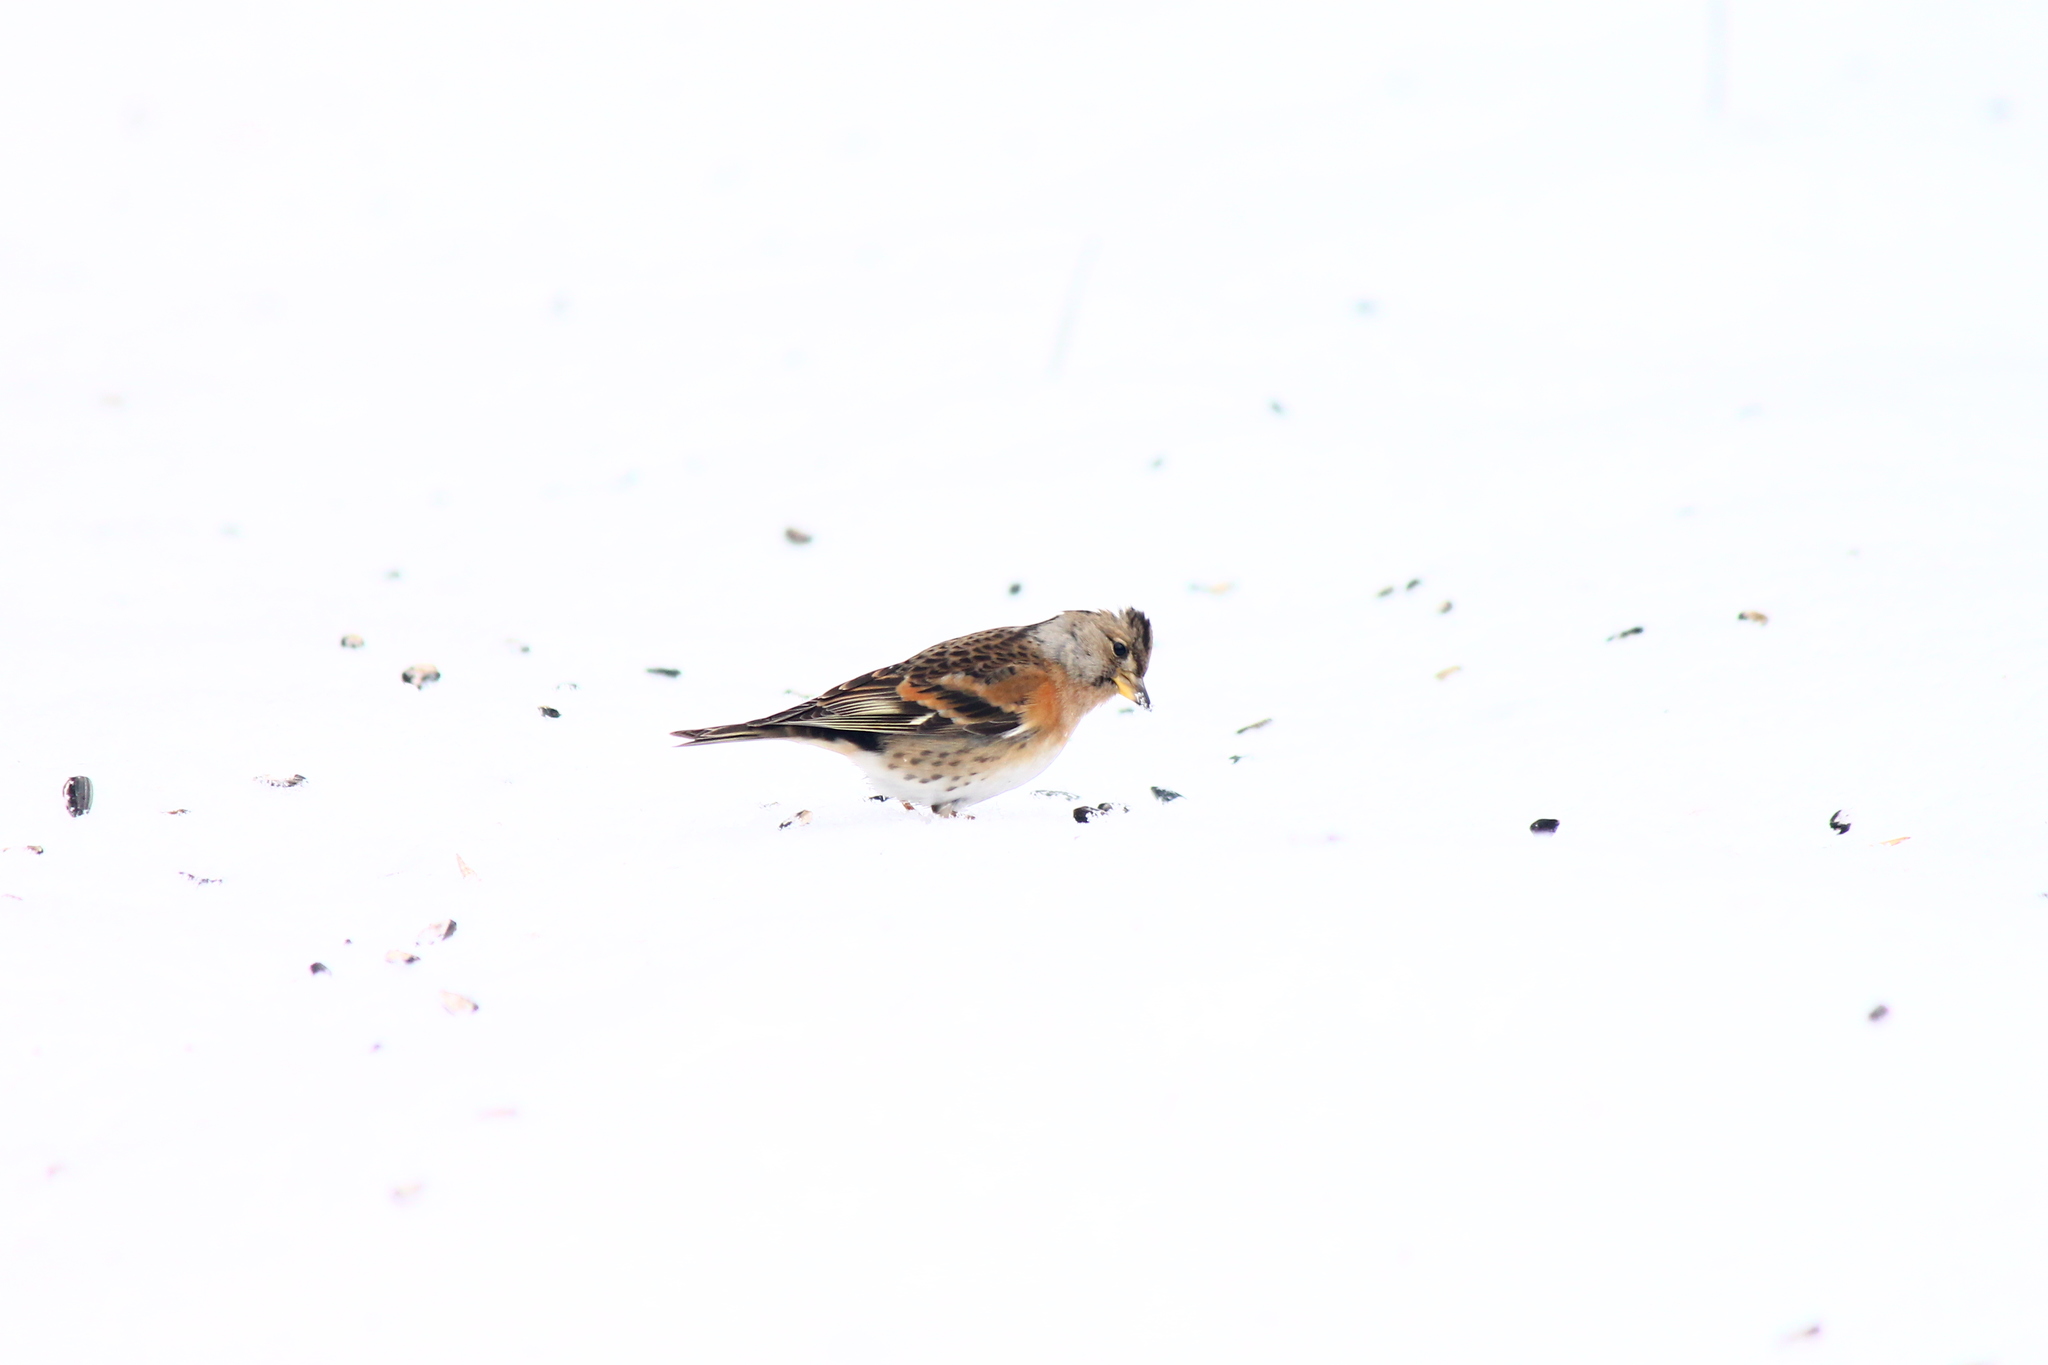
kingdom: Animalia
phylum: Chordata
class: Aves
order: Passeriformes
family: Fringillidae
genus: Fringilla
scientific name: Fringilla montifringilla
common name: Brambling
